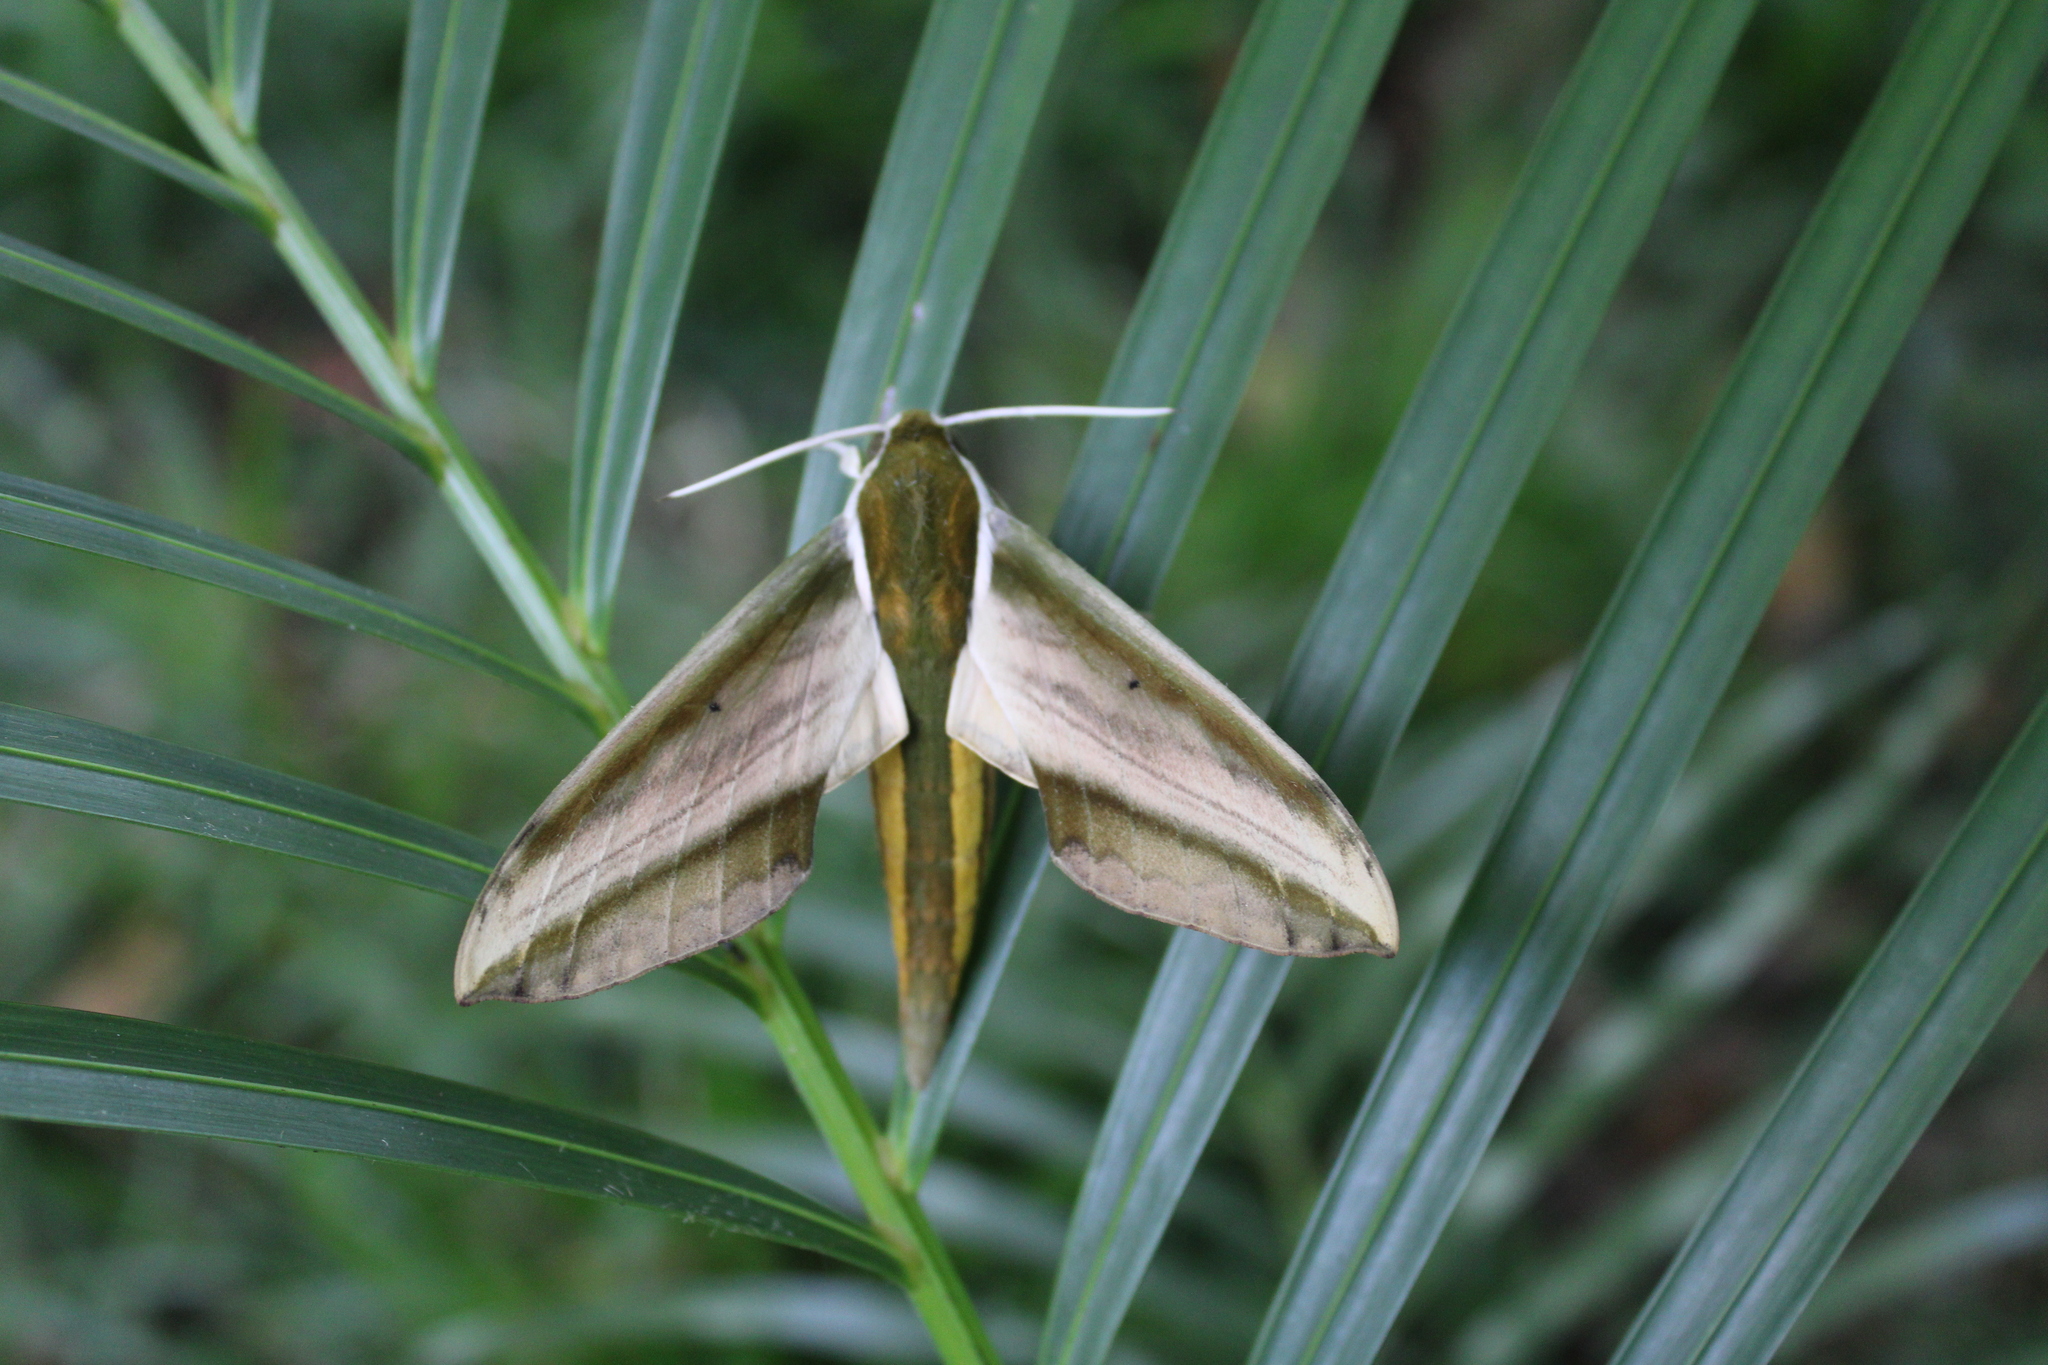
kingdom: Animalia
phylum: Arthropoda
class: Insecta
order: Lepidoptera
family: Sphingidae
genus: Theretra
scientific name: Theretra nessus
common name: Yam hawk moth
